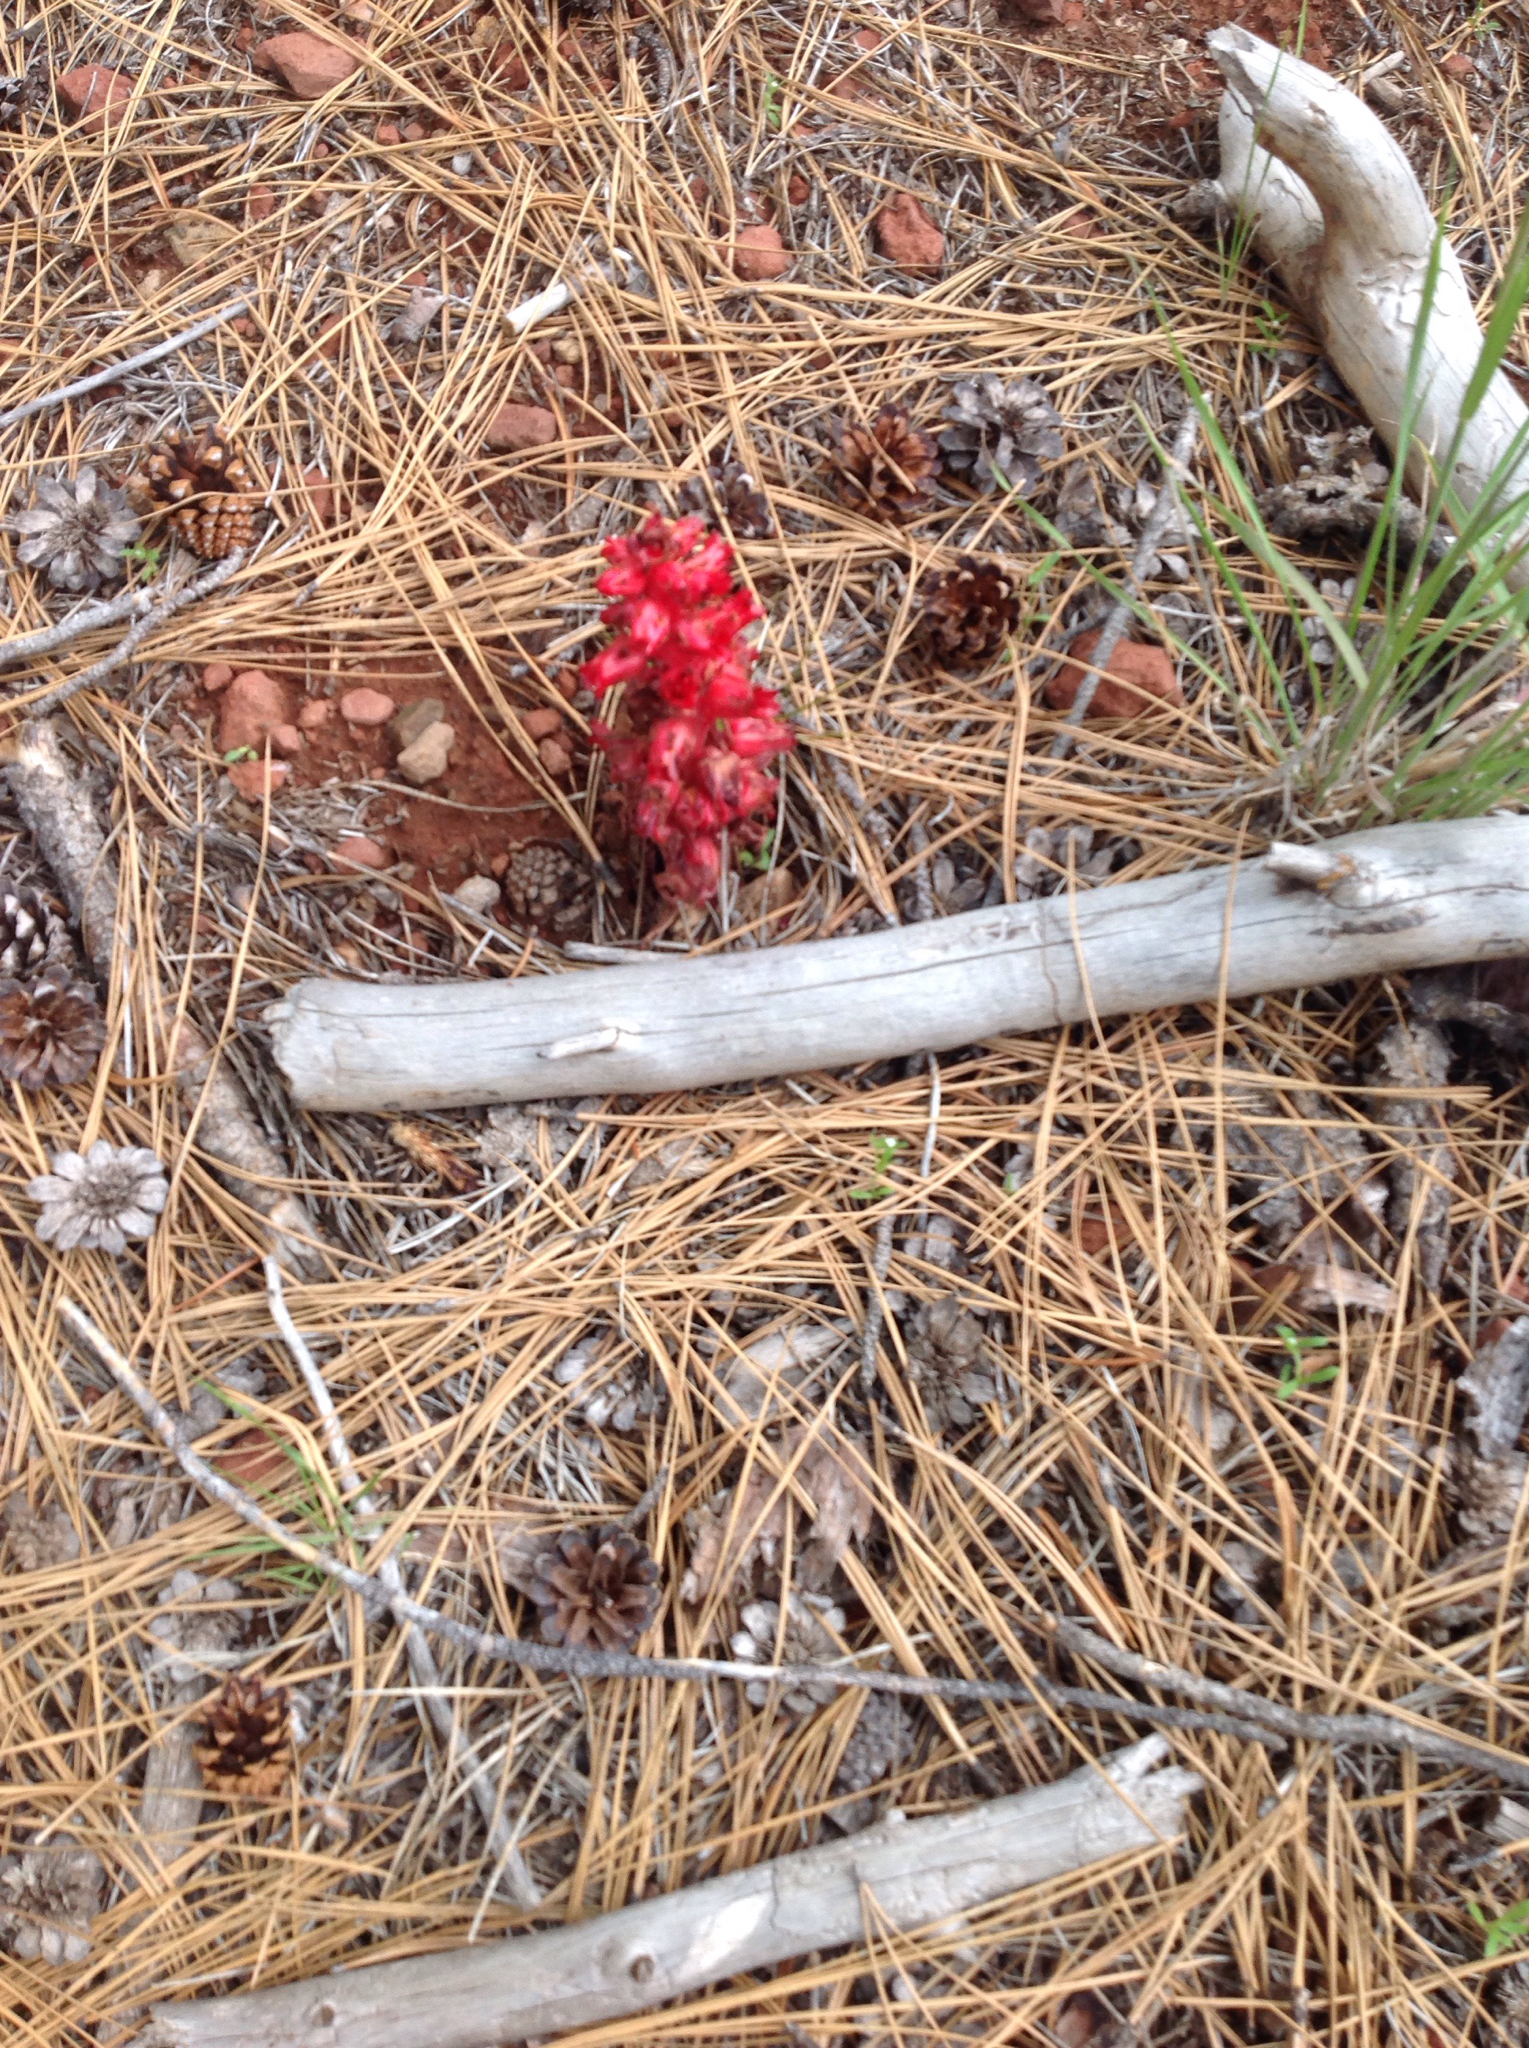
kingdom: Plantae
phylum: Tracheophyta
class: Magnoliopsida
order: Ericales
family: Ericaceae
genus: Sarcodes
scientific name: Sarcodes sanguinea
